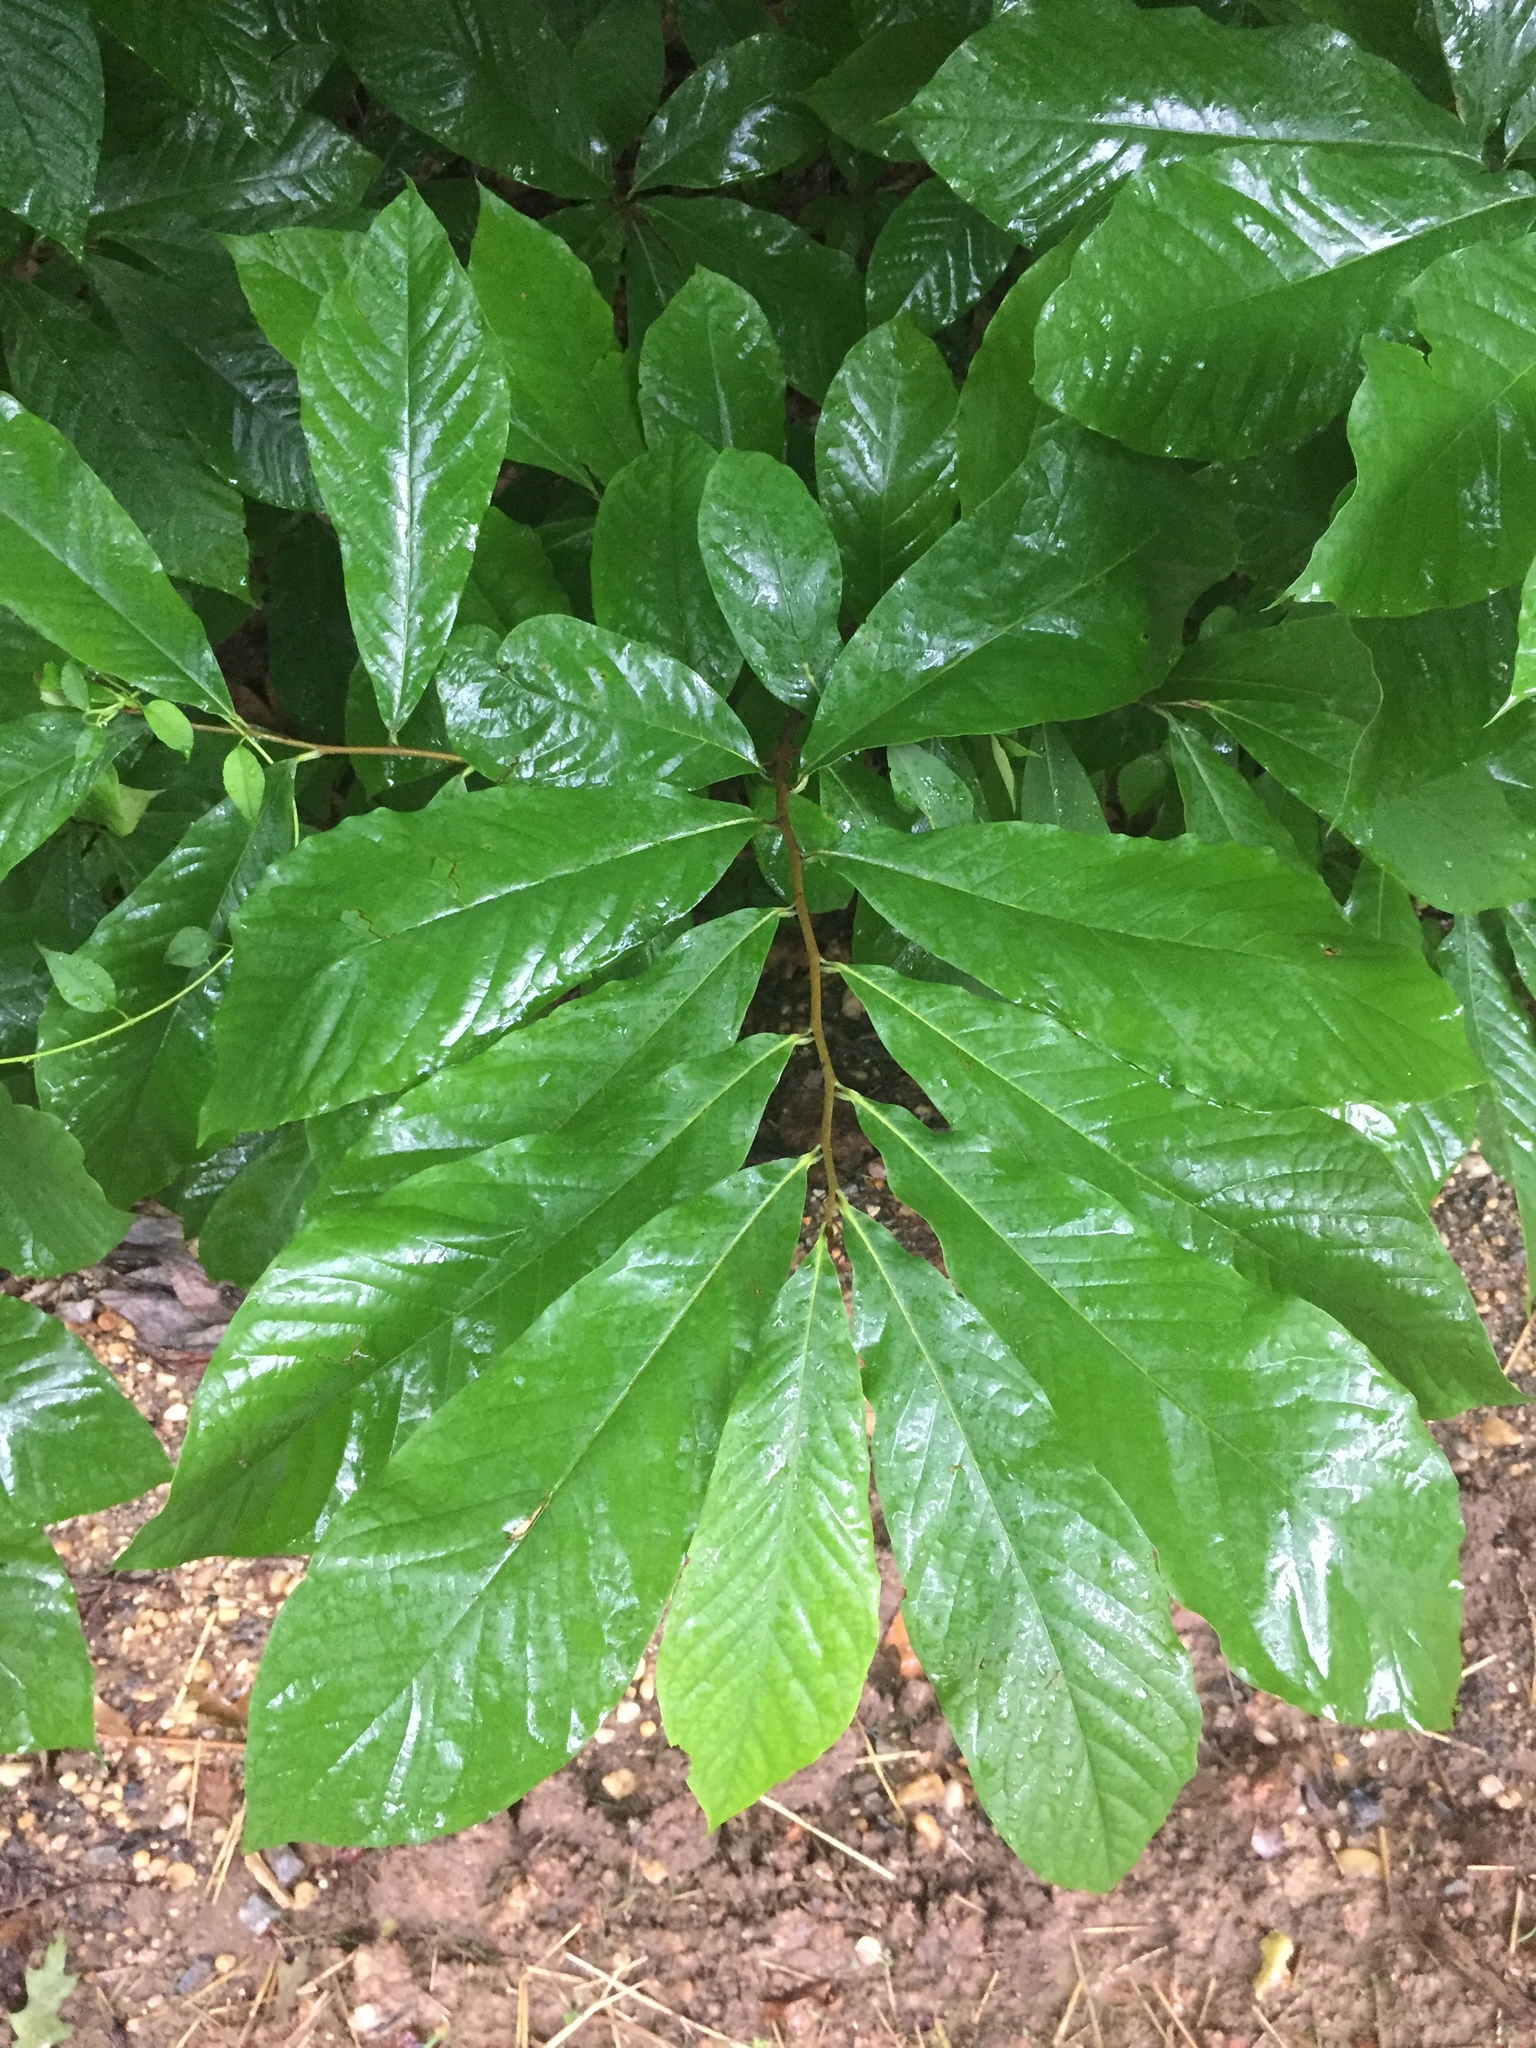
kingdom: Plantae
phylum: Tracheophyta
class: Magnoliopsida
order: Magnoliales
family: Annonaceae
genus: Asimina
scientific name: Asimina triloba
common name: Dog-banana
